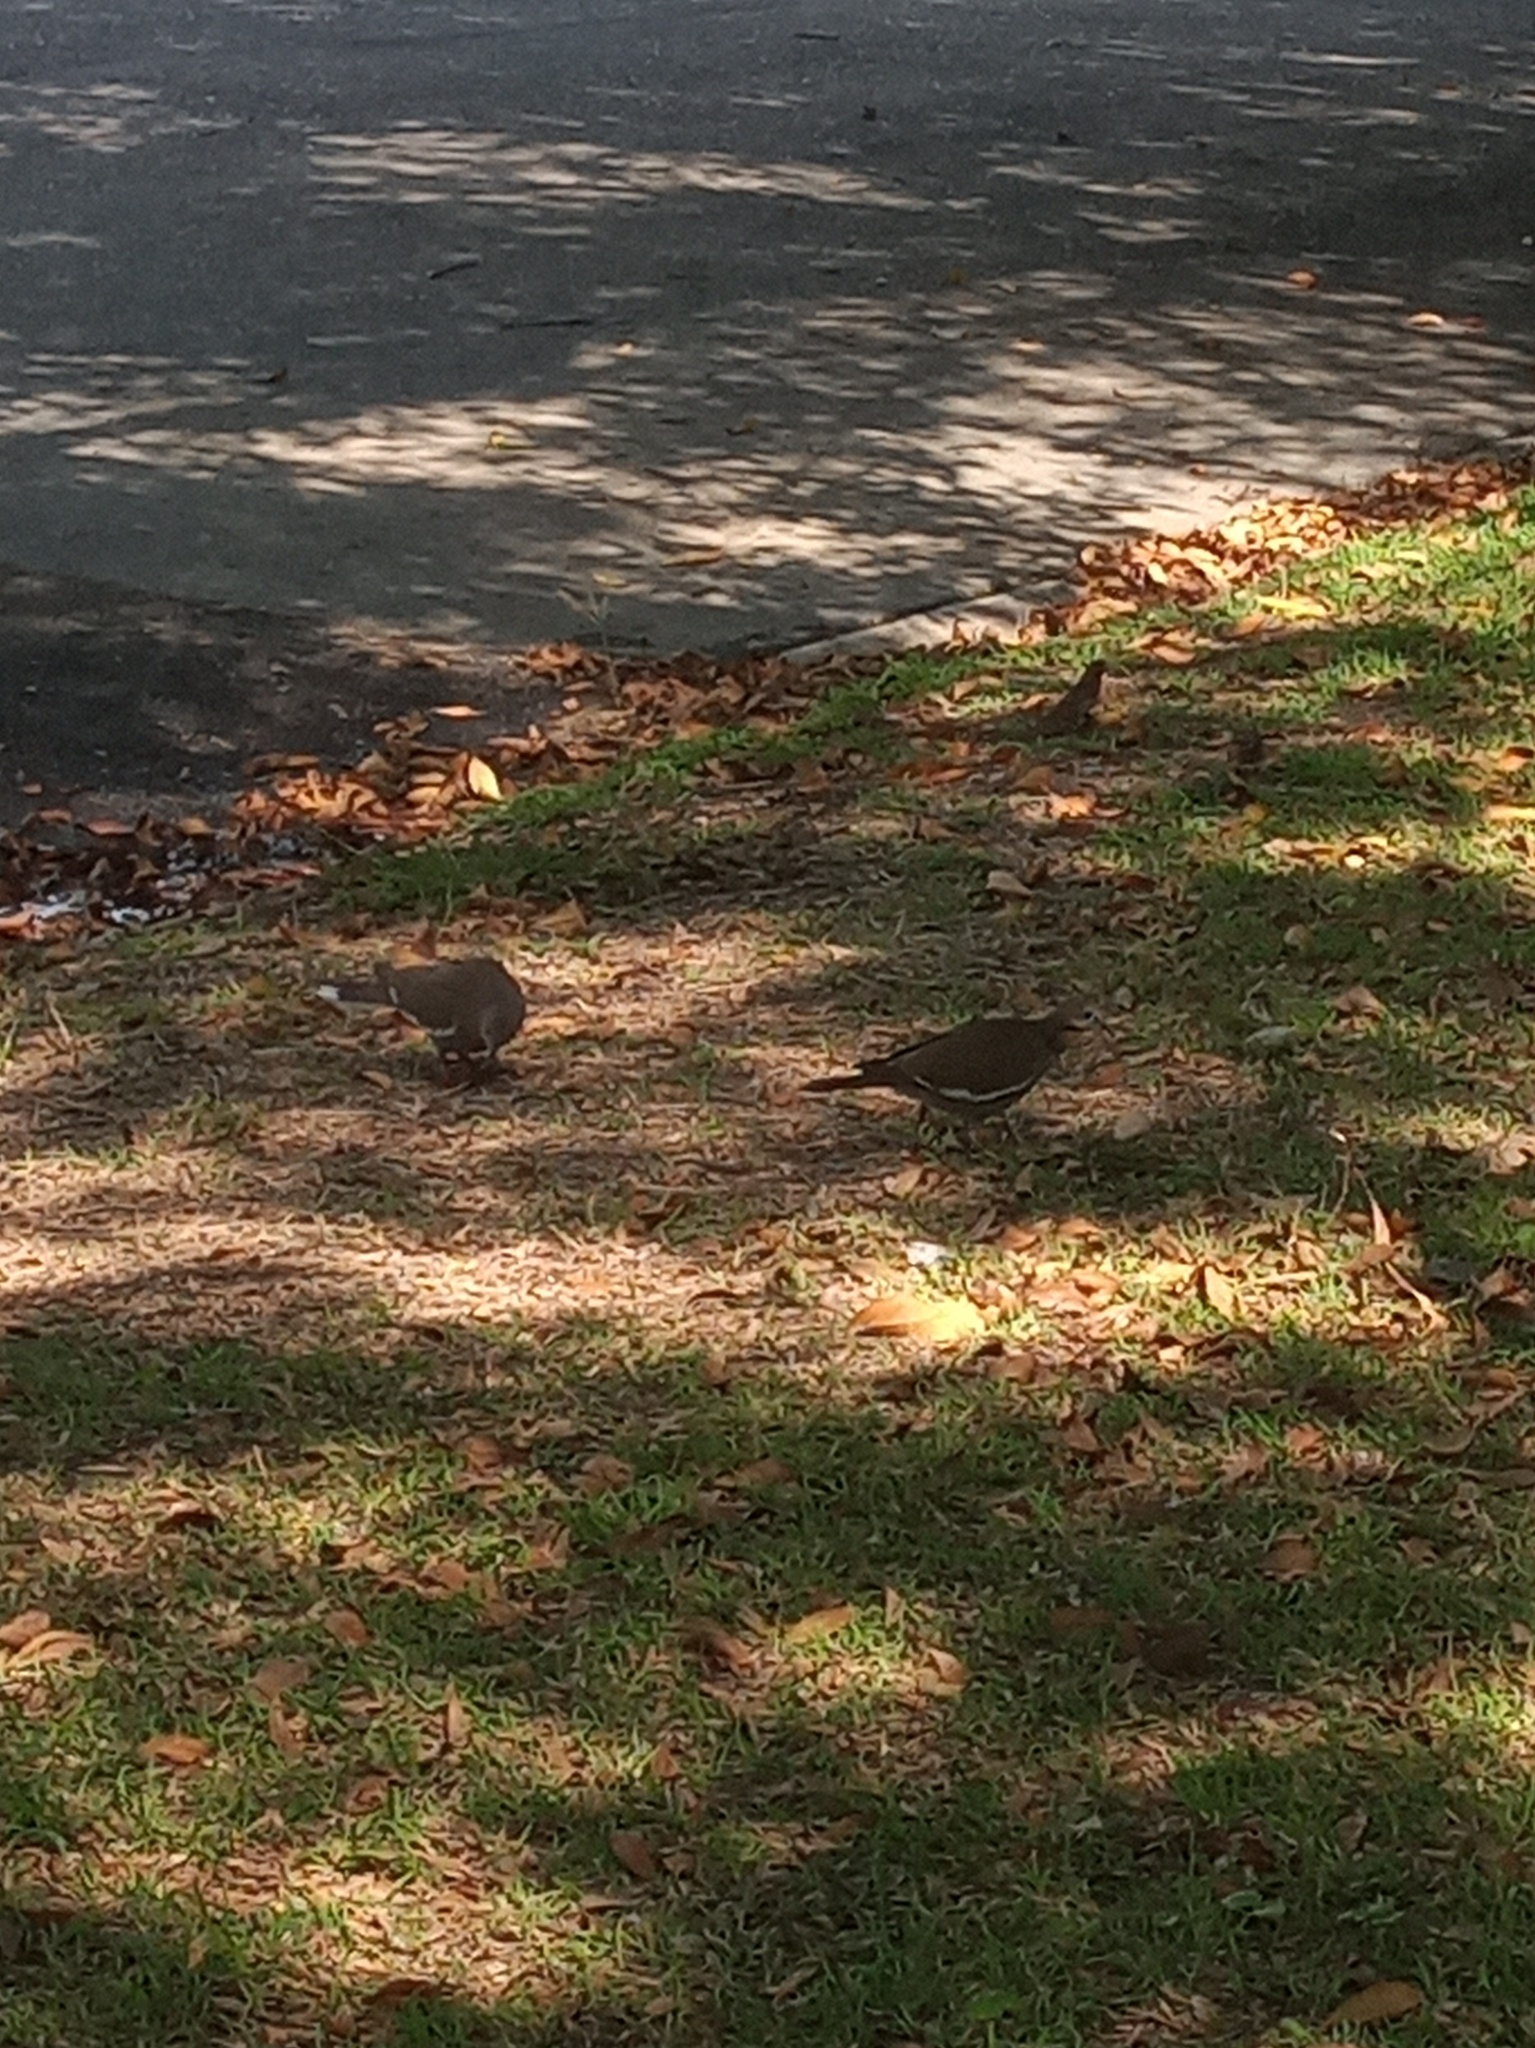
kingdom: Animalia
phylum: Chordata
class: Aves
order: Columbiformes
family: Columbidae
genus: Zenaida
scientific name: Zenaida asiatica
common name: White-winged dove
